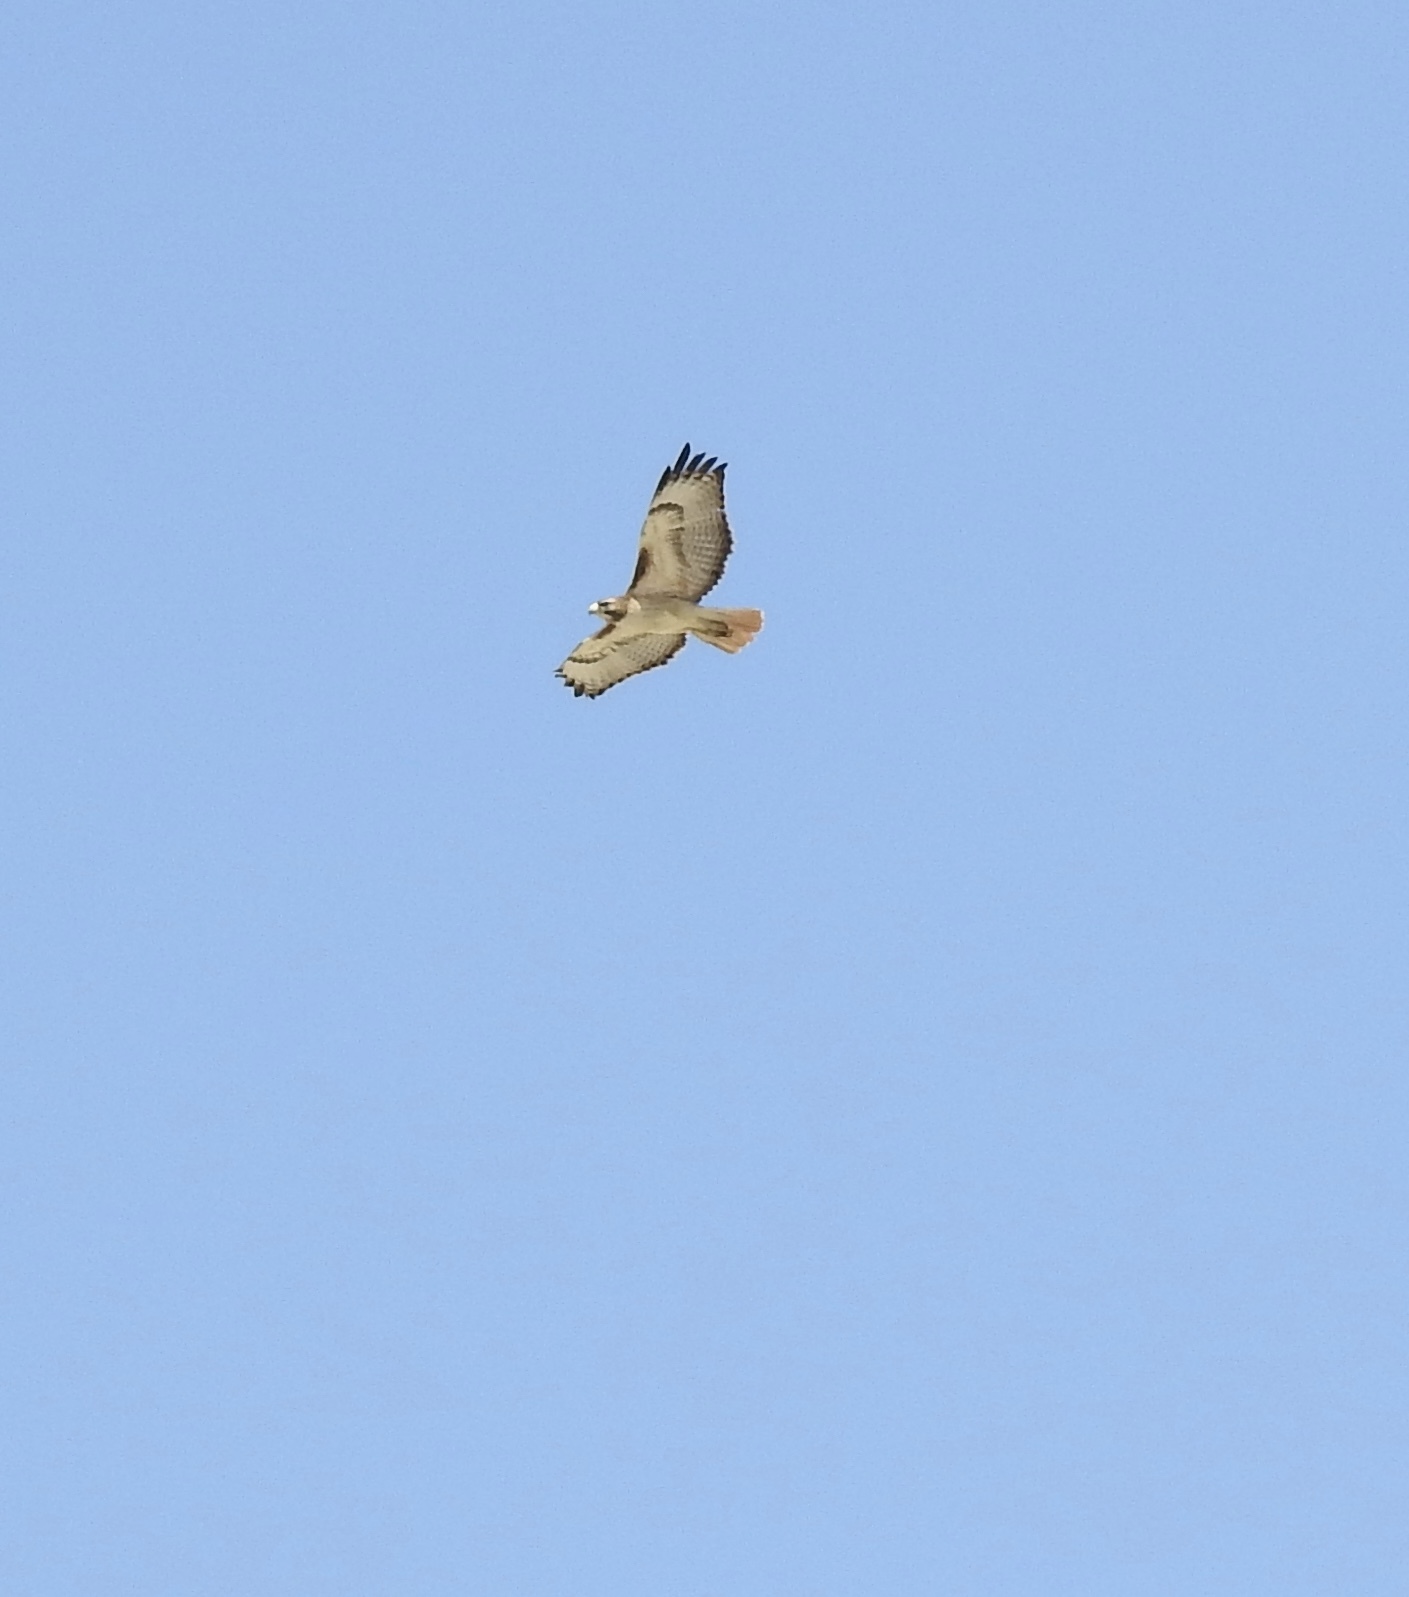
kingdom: Animalia
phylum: Chordata
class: Aves
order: Accipitriformes
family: Accipitridae
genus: Buteo
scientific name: Buteo jamaicensis
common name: Red-tailed hawk
